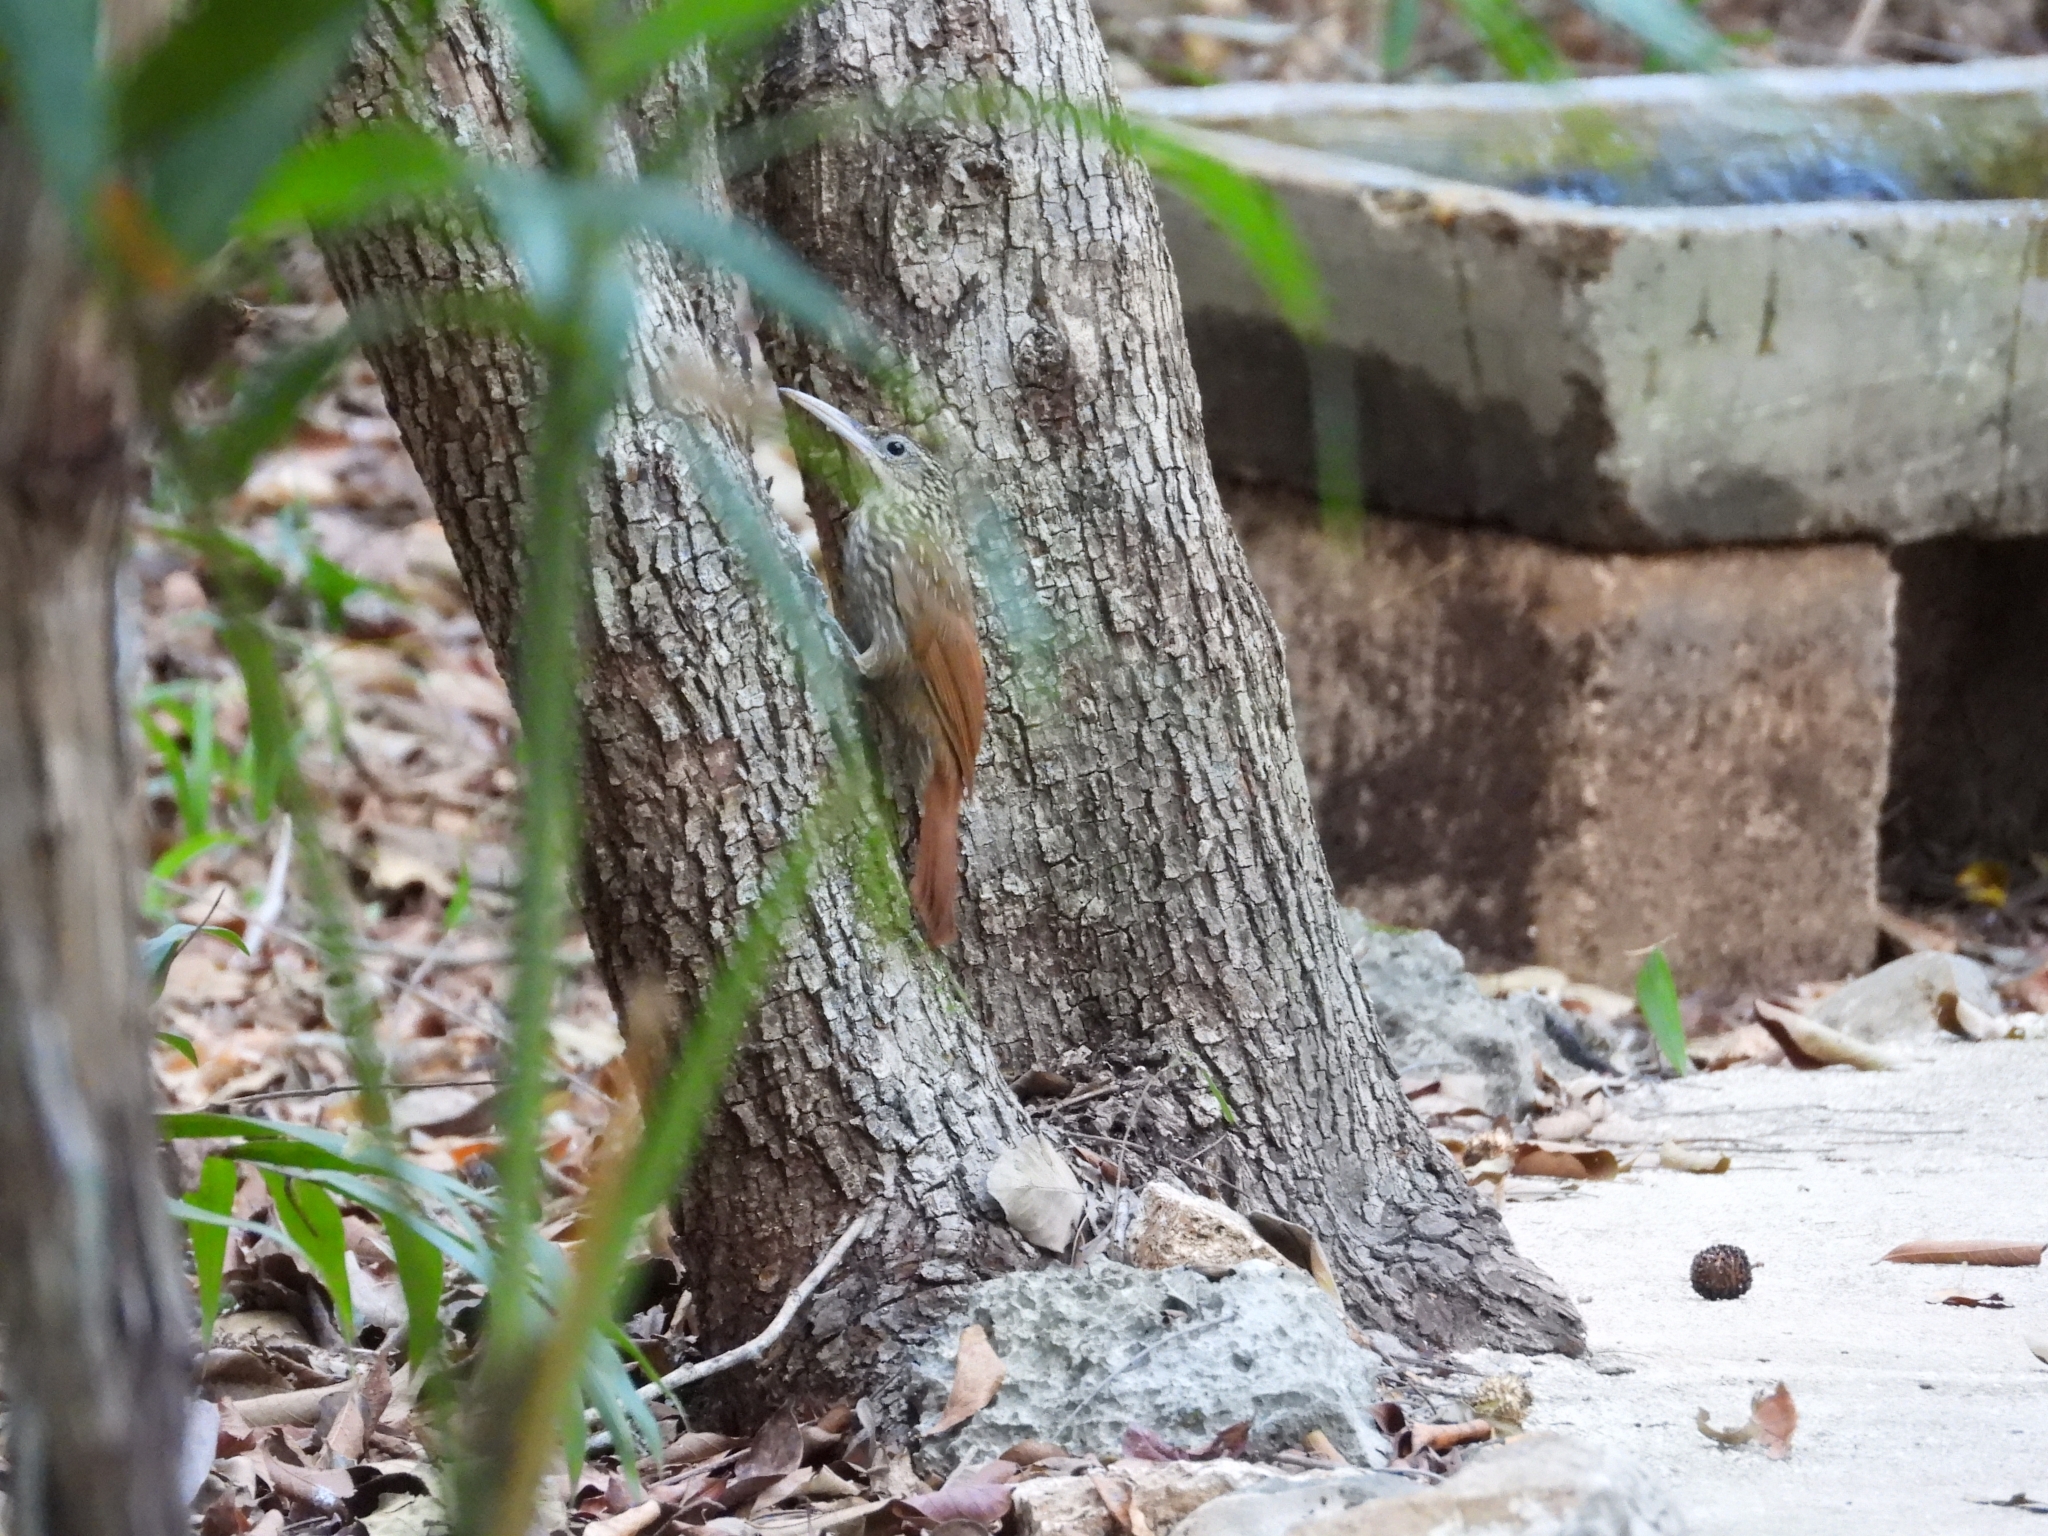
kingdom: Animalia
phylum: Chordata
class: Aves
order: Passeriformes
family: Furnariidae
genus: Xiphorhynchus
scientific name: Xiphorhynchus flavigaster
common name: Ivory-billed woodcreeper
